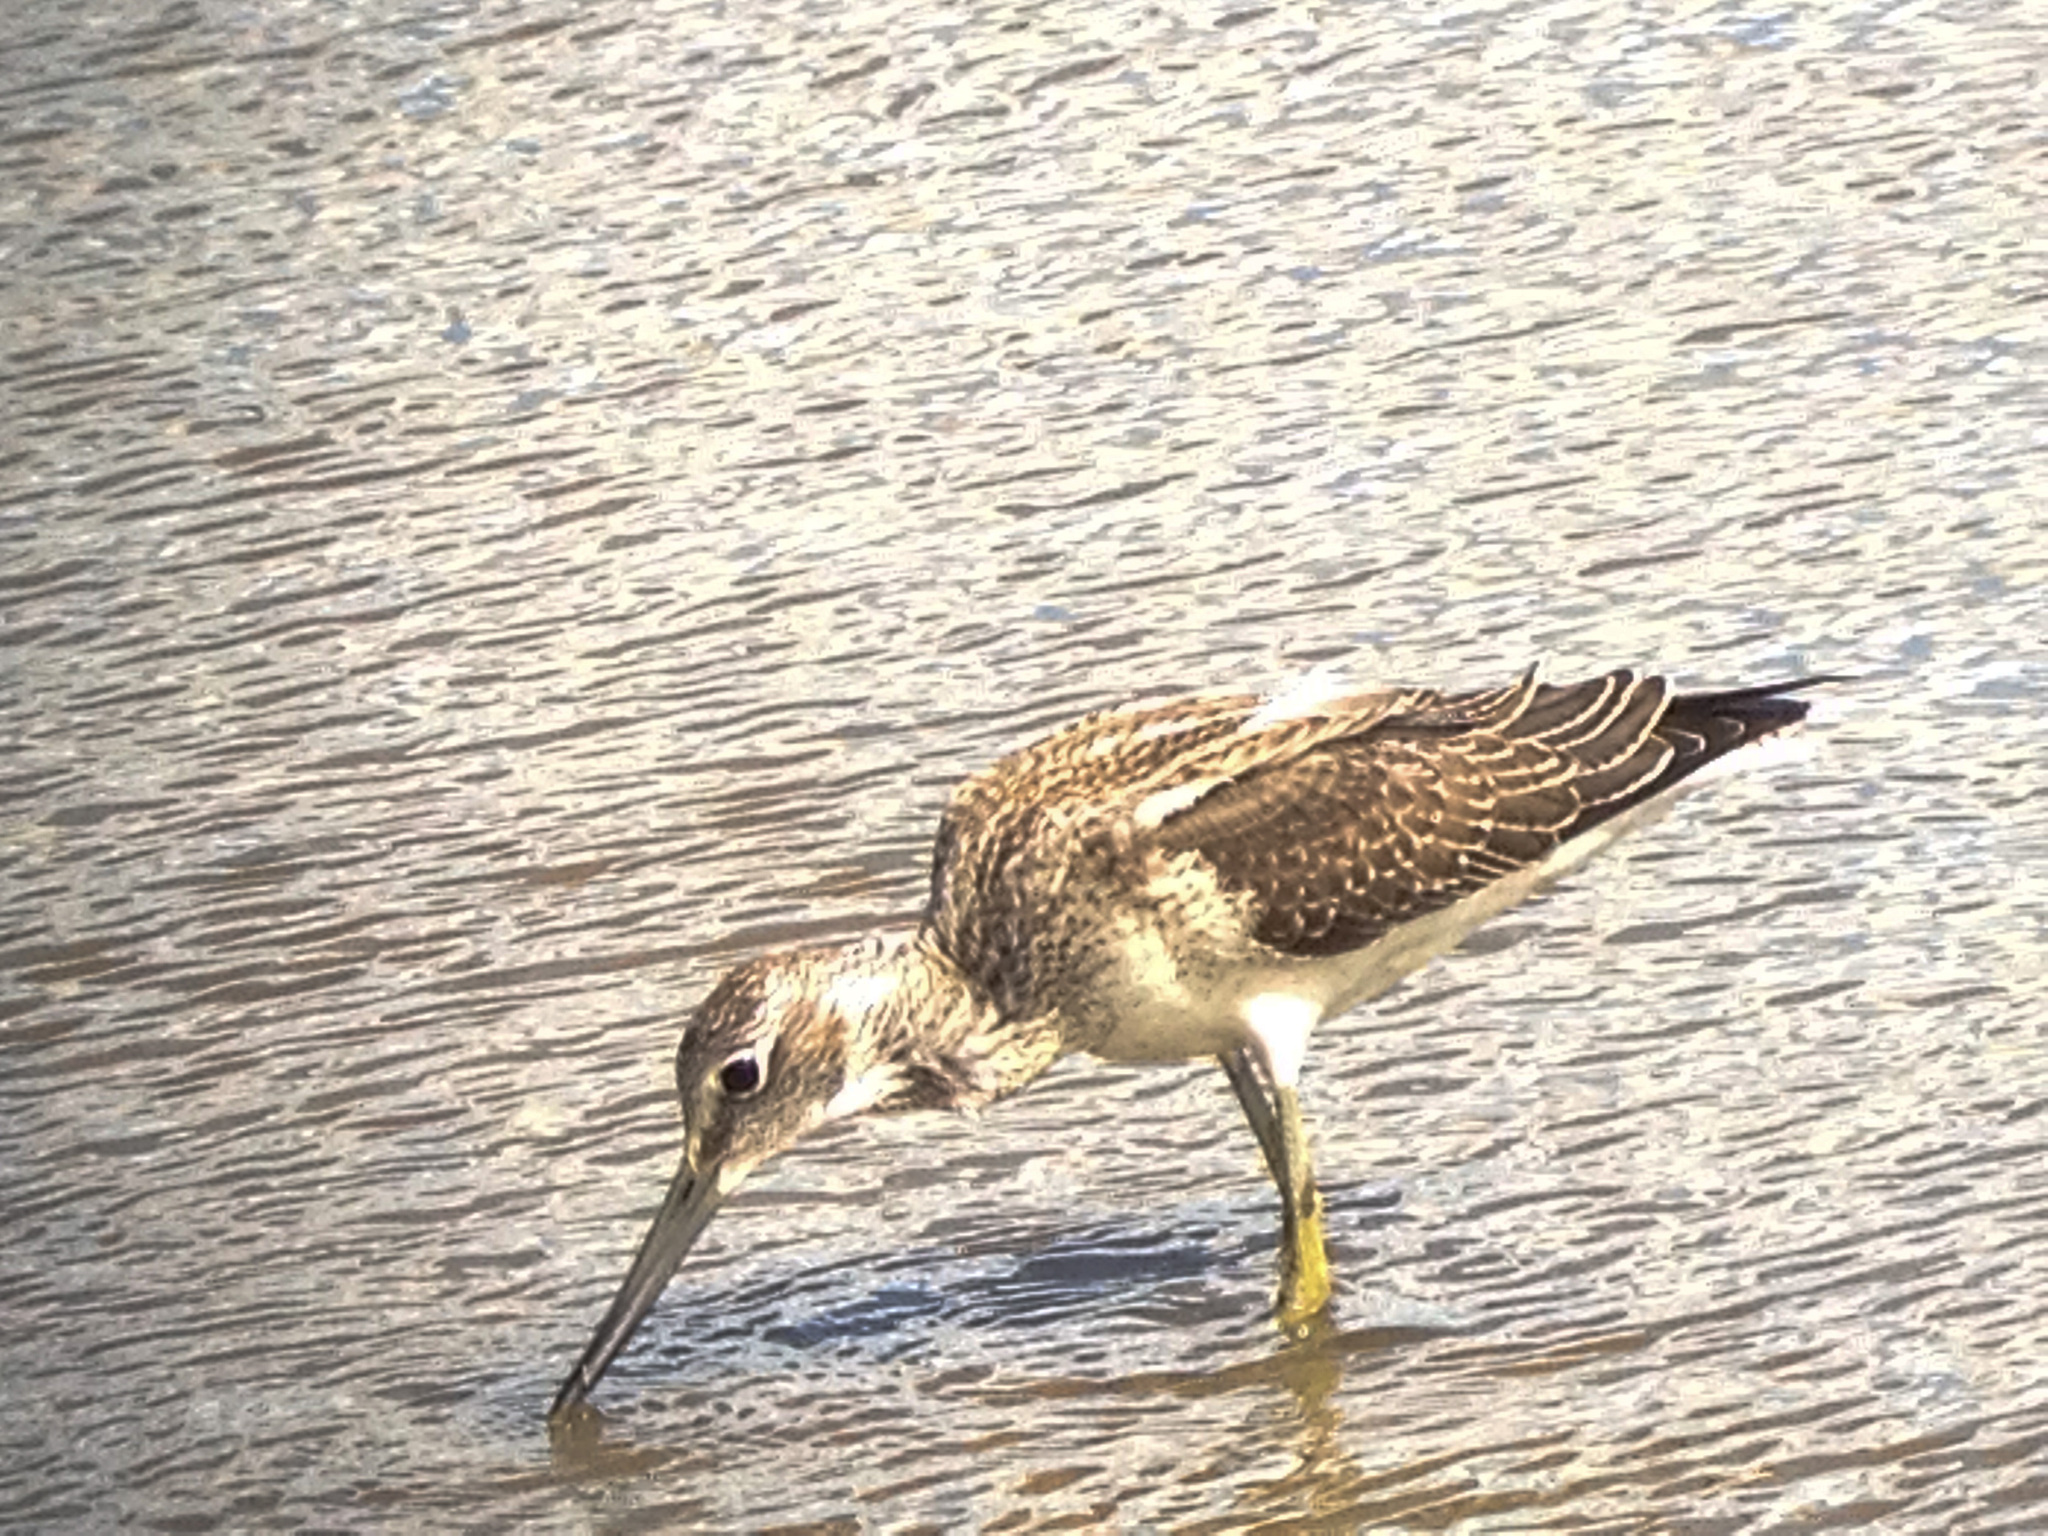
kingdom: Animalia
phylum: Chordata
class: Aves
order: Charadriiformes
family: Scolopacidae
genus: Tringa
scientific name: Tringa nebularia
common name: Common greenshank
